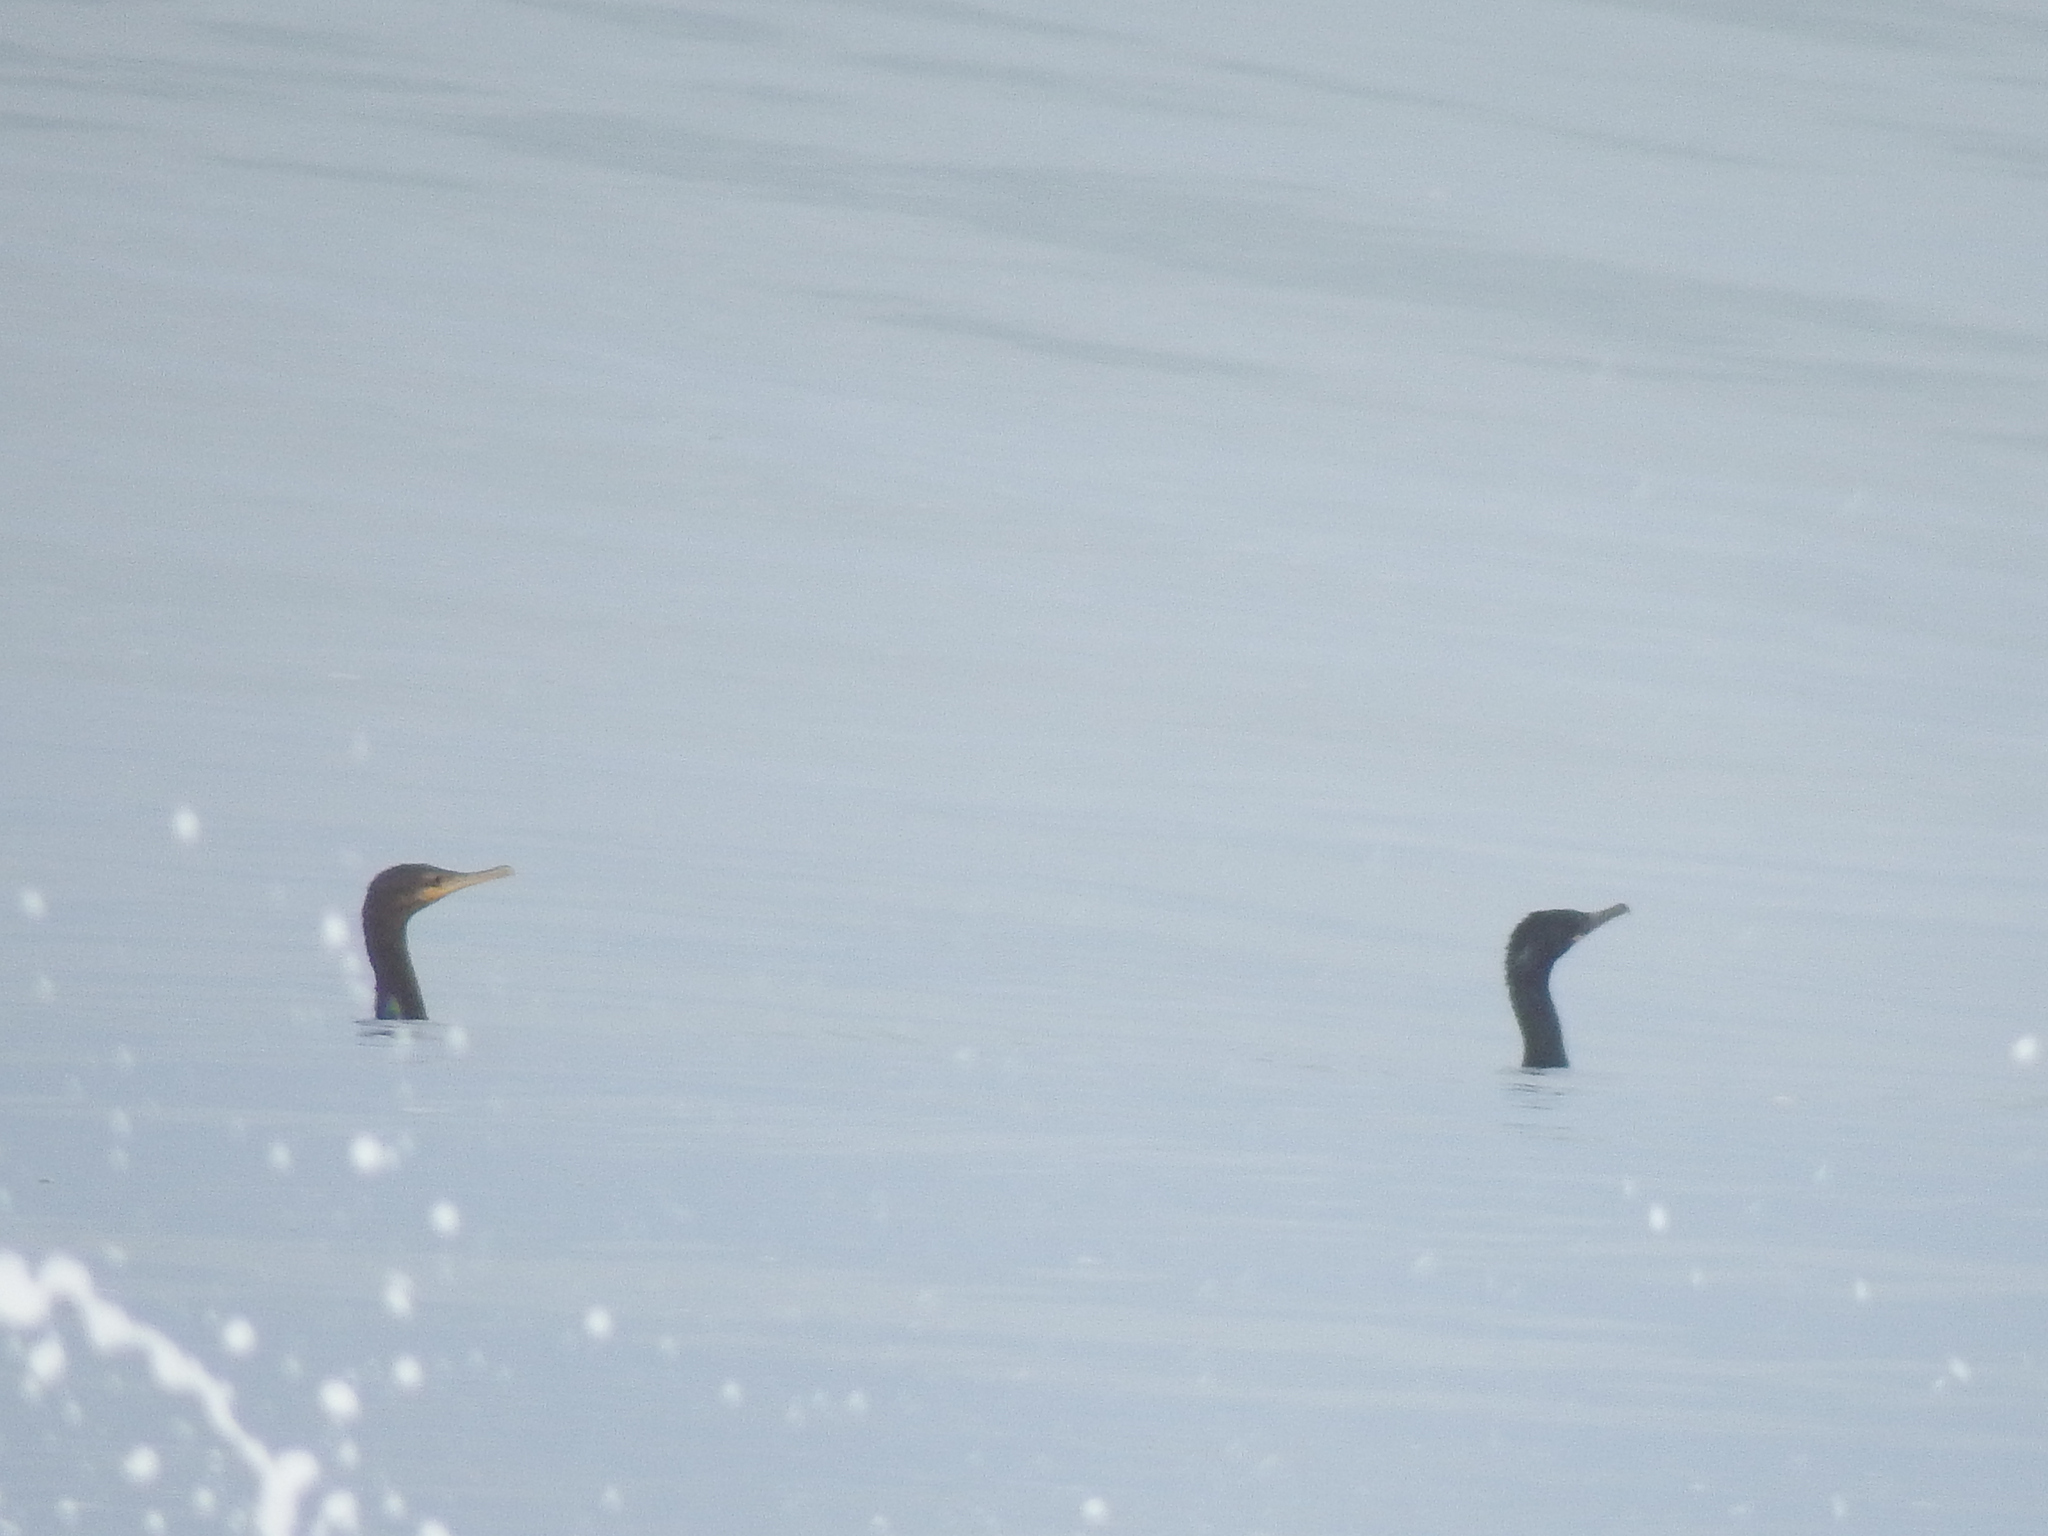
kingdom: Animalia
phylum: Chordata
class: Aves
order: Suliformes
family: Phalacrocoracidae
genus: Phalacrocorax
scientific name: Phalacrocorax brasilianus
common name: Neotropic cormorant
